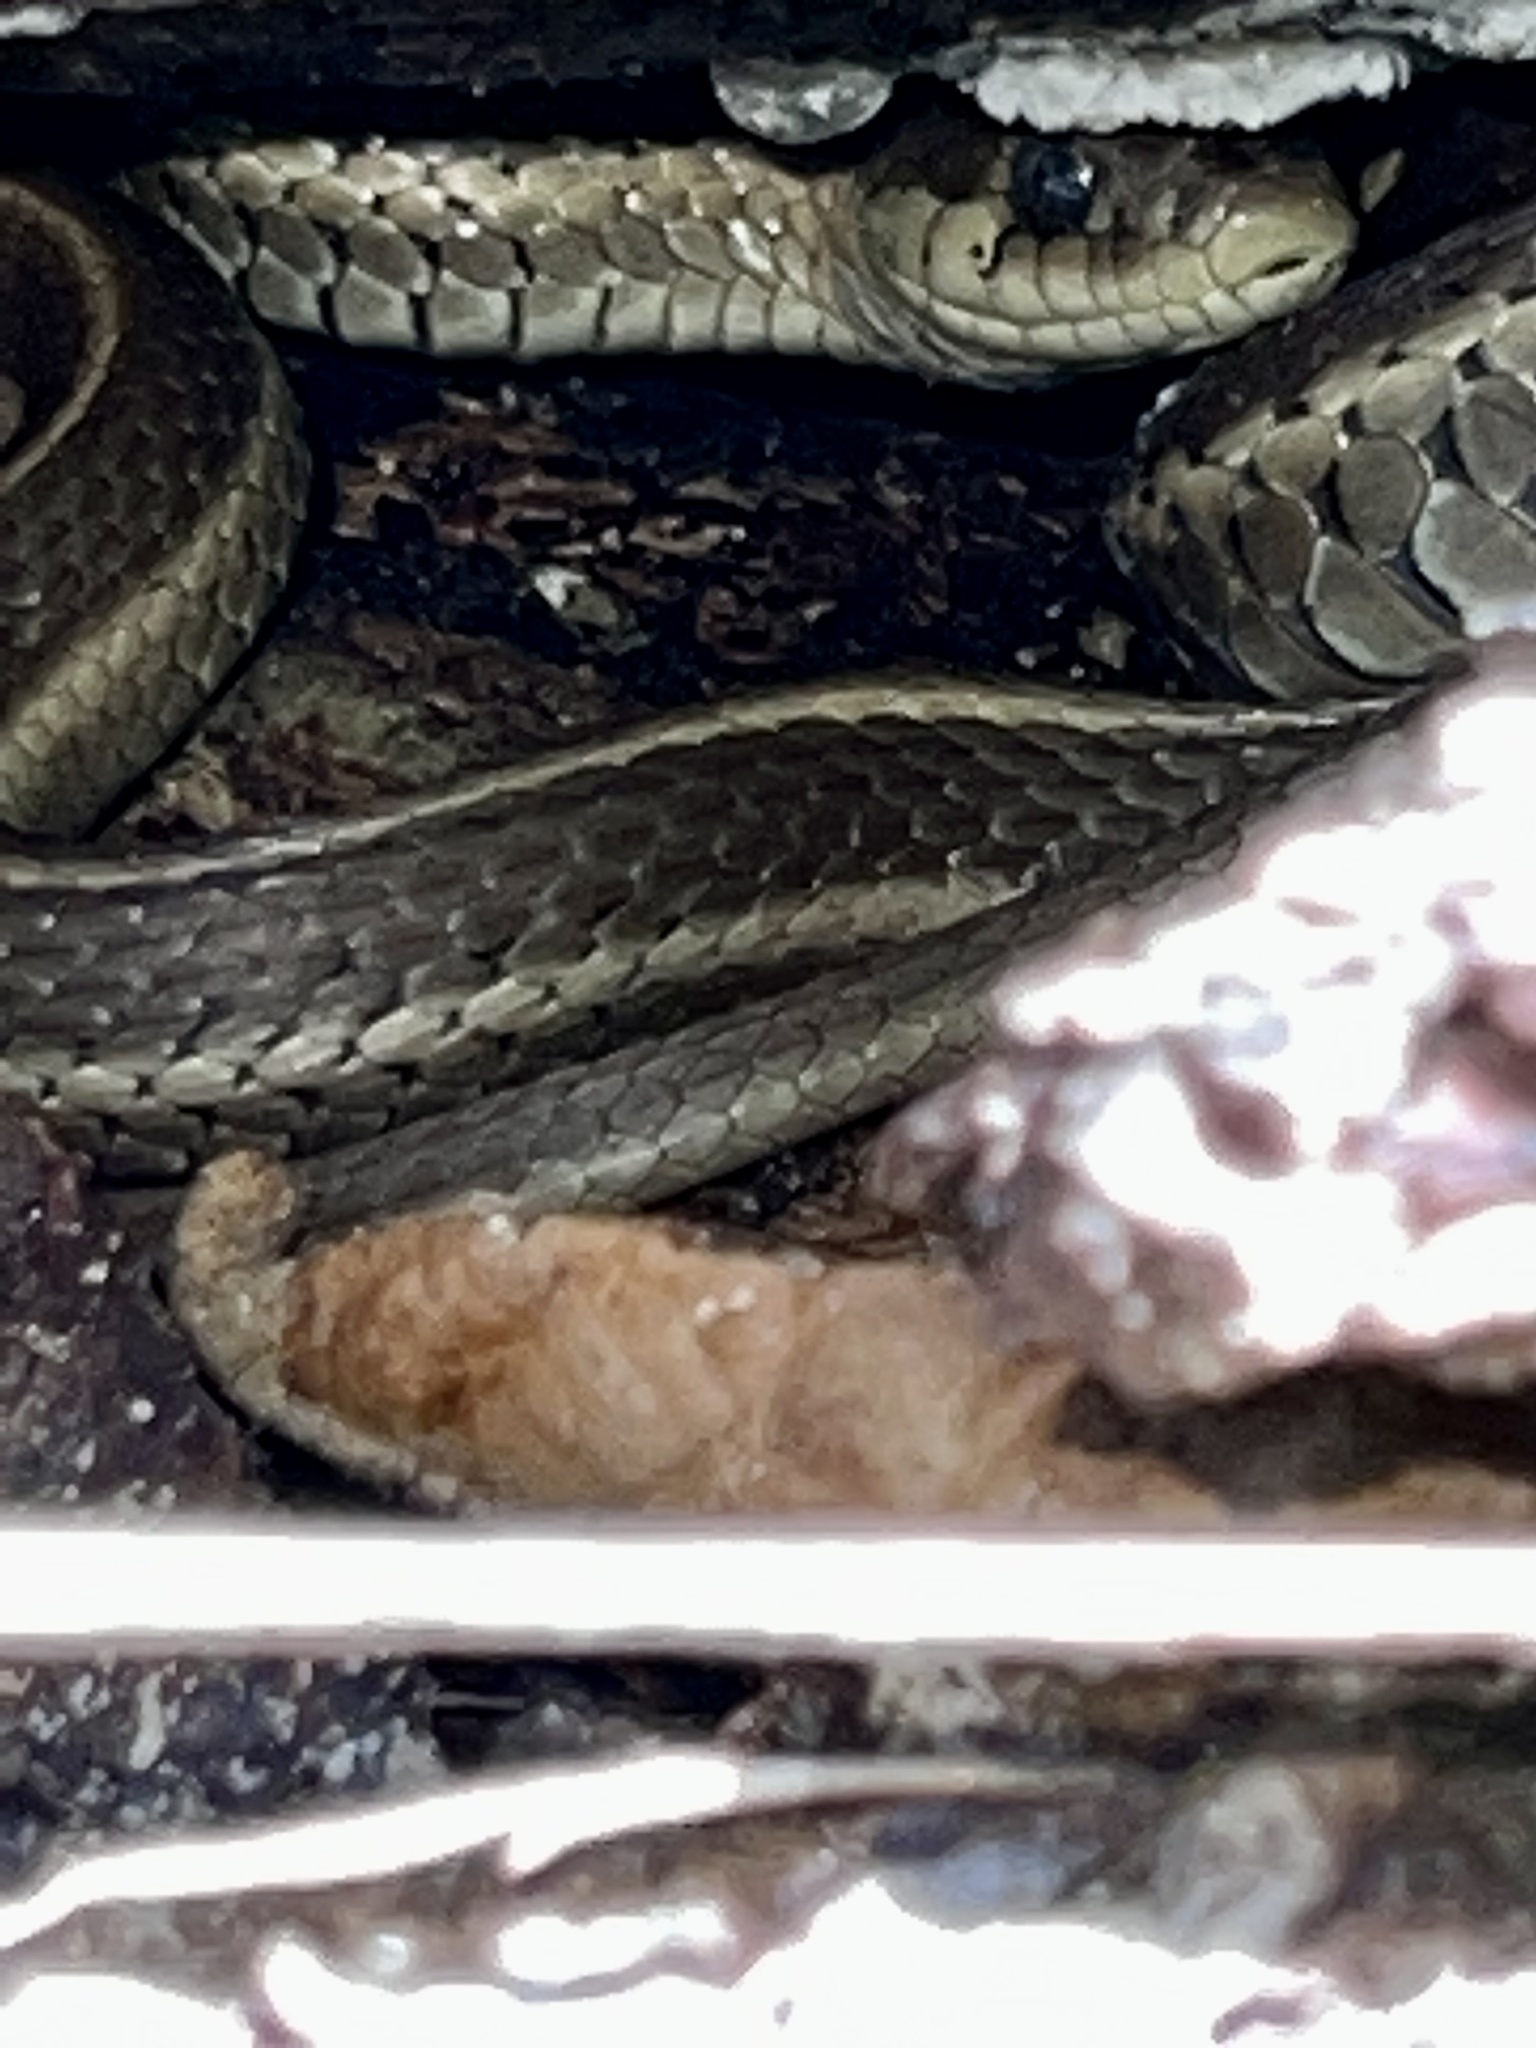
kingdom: Animalia
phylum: Chordata
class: Squamata
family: Colubridae
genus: Thamnophis
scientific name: Thamnophis elegans
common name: Western terrestrial garter snake
